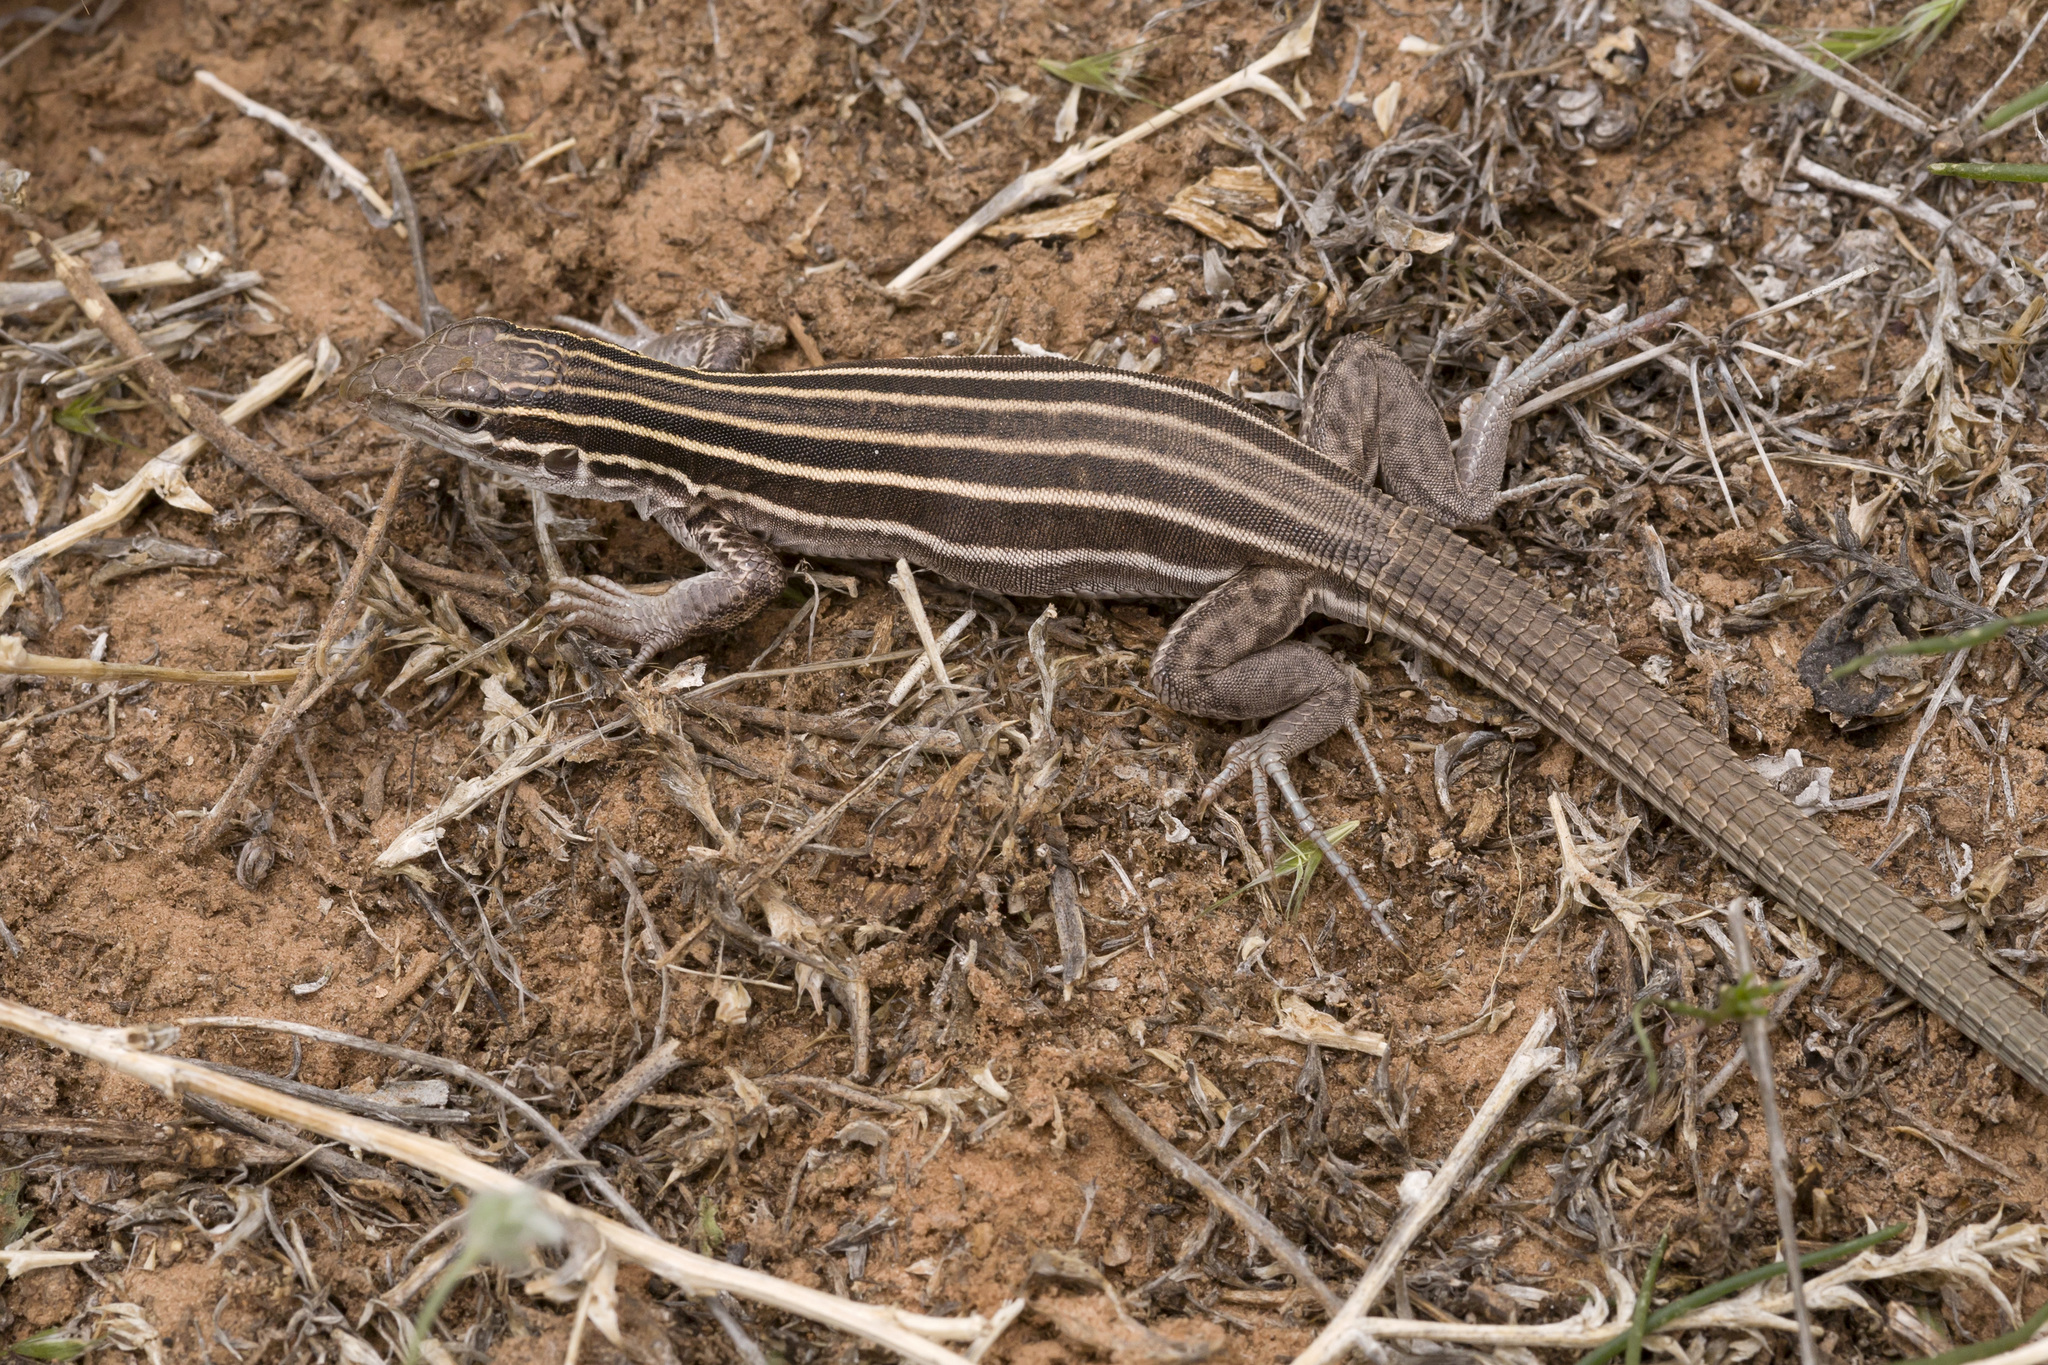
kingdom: Animalia
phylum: Chordata
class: Squamata
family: Teiidae
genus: Aspidoscelis
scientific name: Aspidoscelis velox
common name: Plateau striped whiptail
